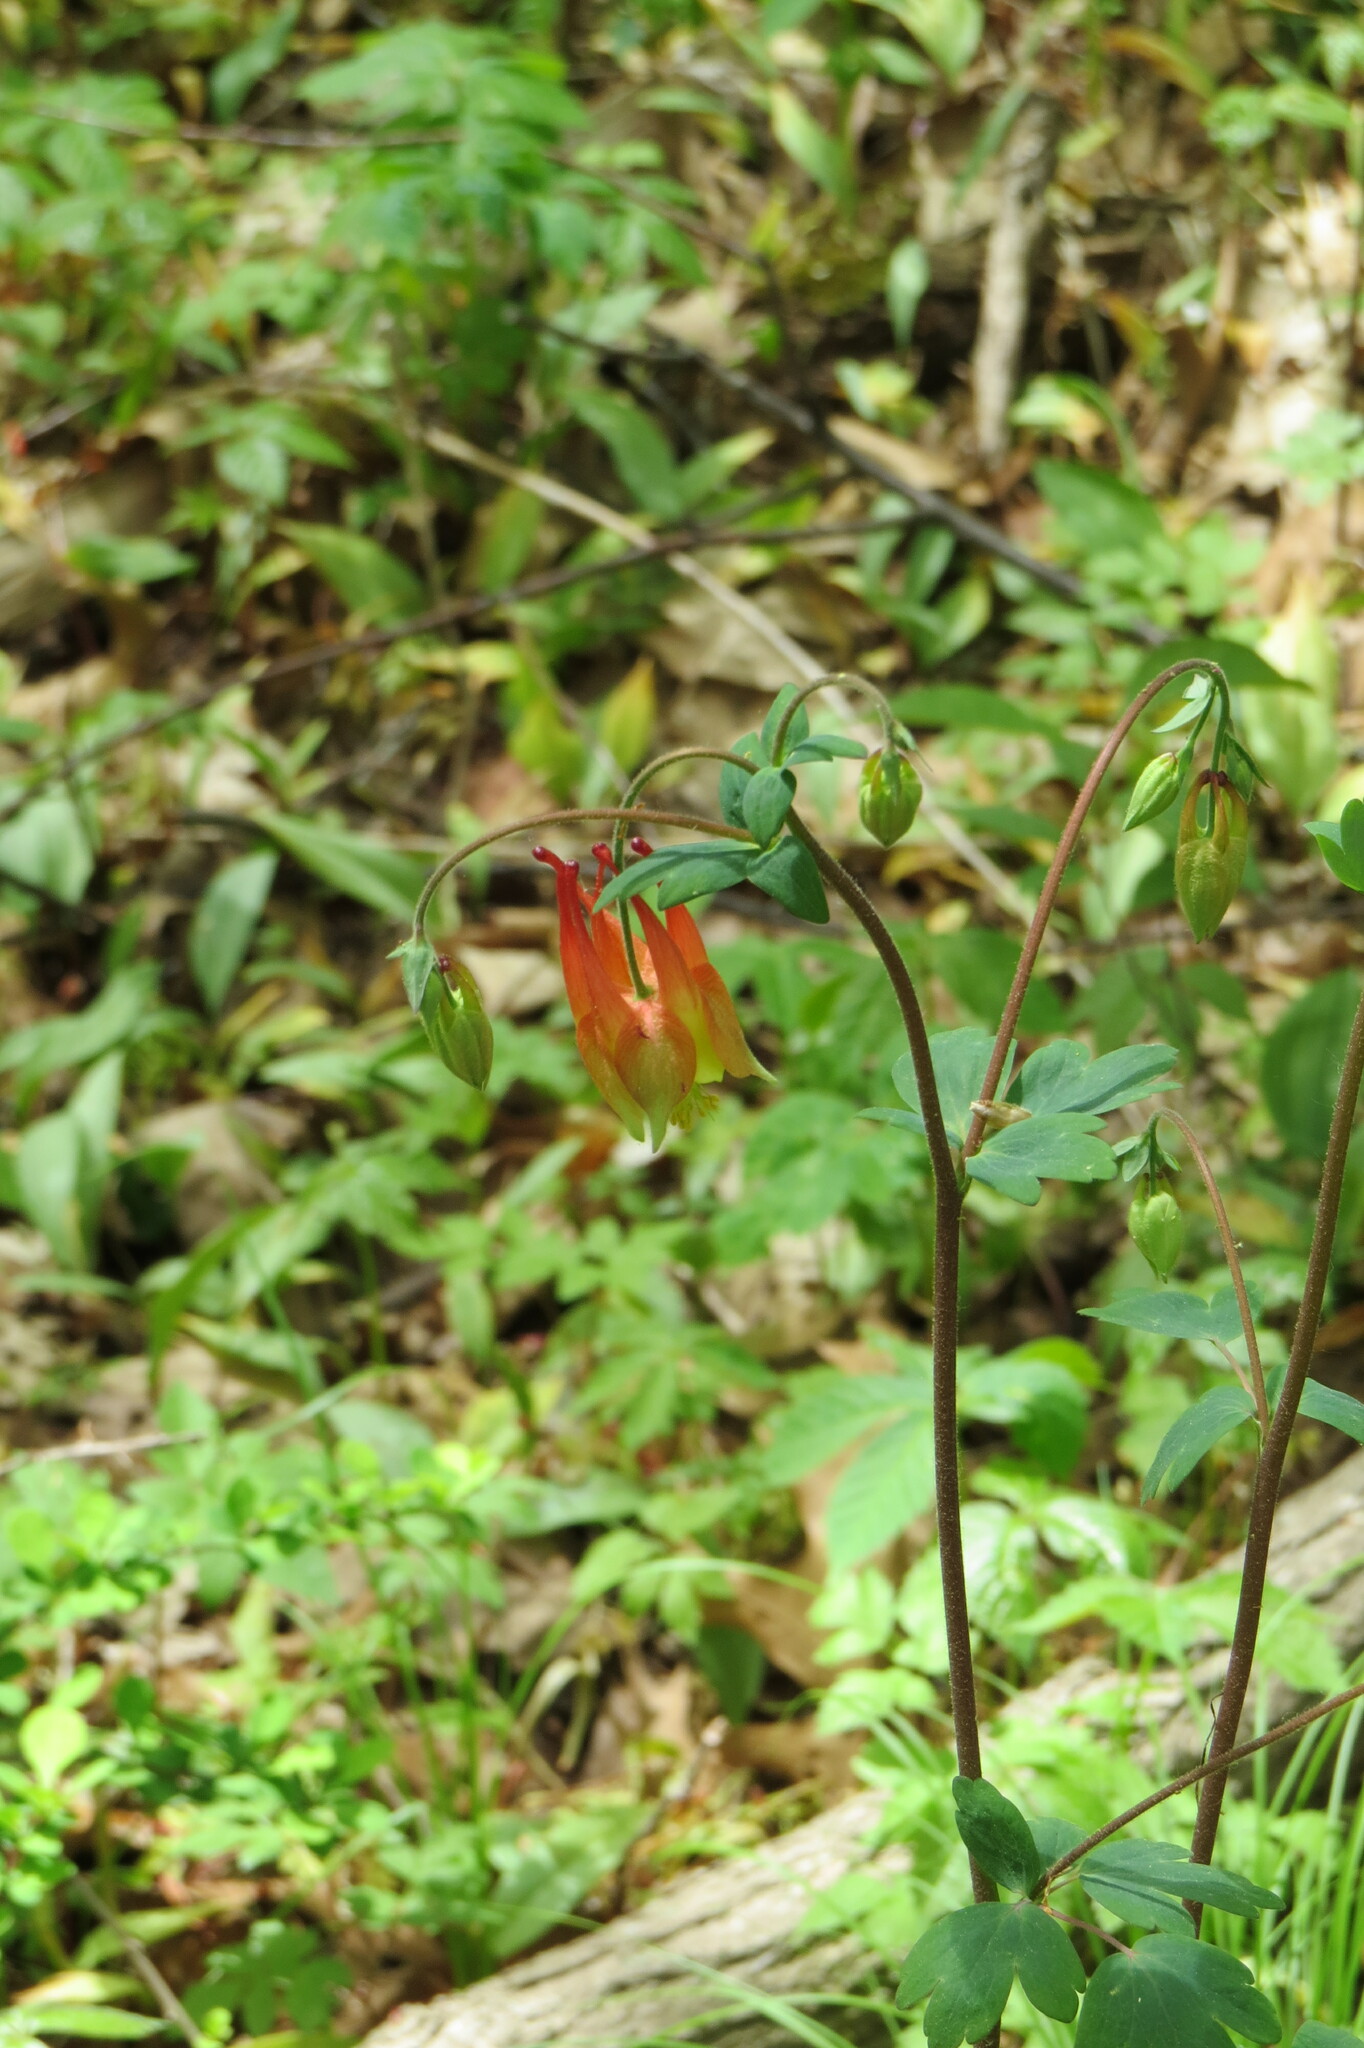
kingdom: Plantae
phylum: Tracheophyta
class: Magnoliopsida
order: Ranunculales
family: Ranunculaceae
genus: Aquilegia
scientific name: Aquilegia canadensis
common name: American columbine
